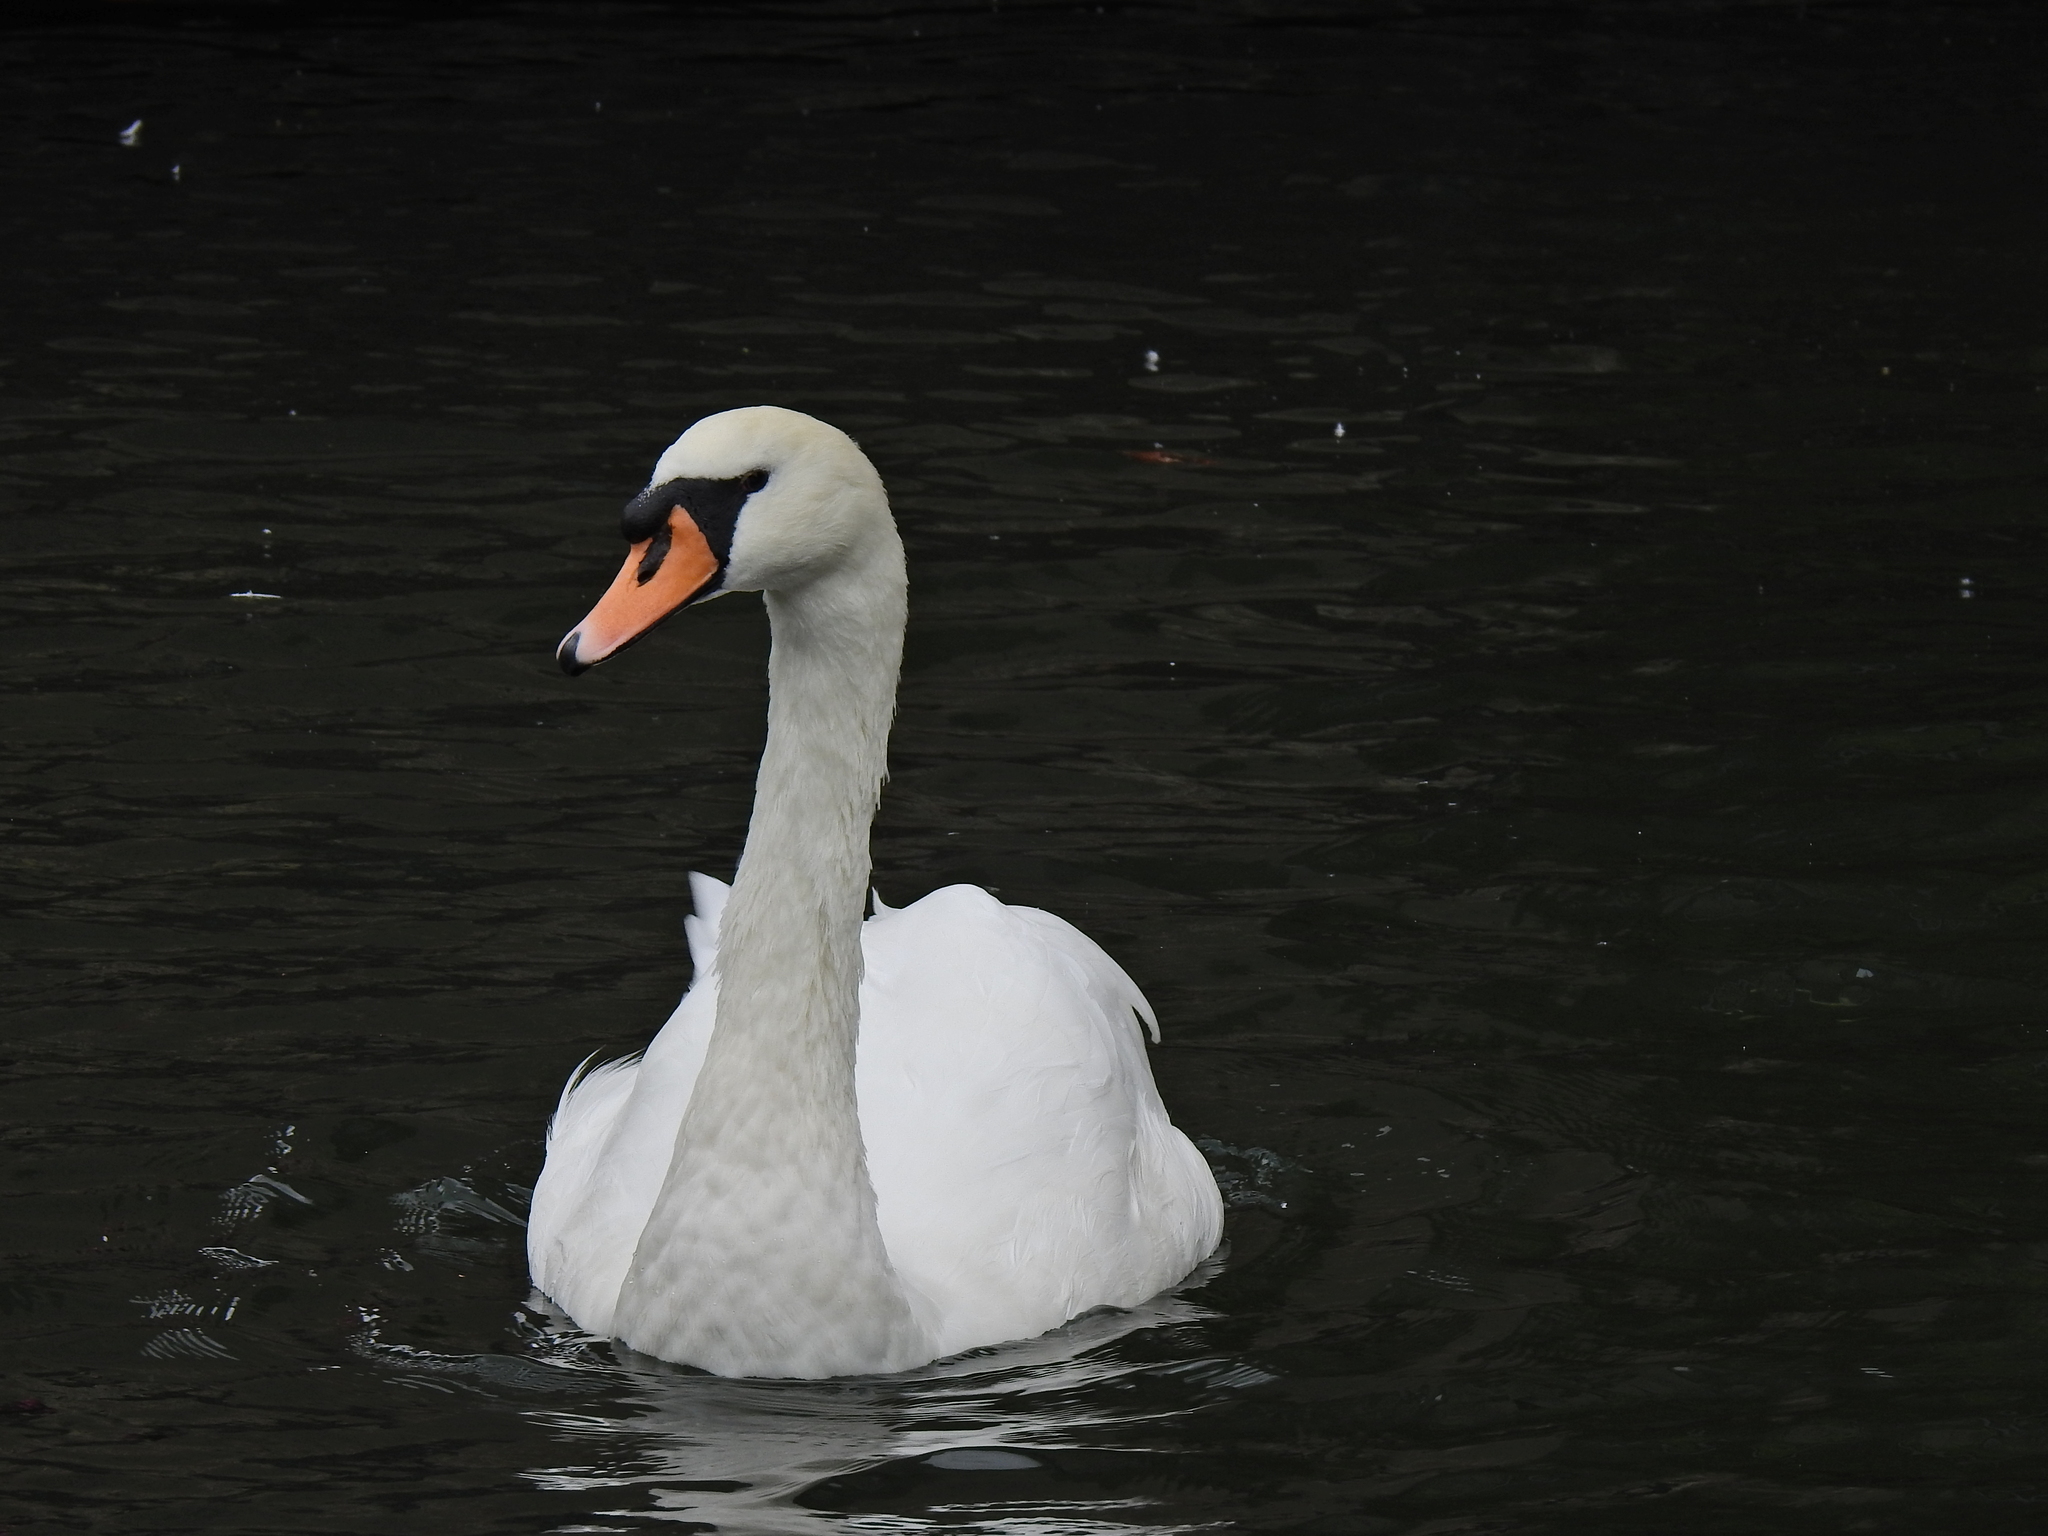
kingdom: Animalia
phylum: Chordata
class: Aves
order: Anseriformes
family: Anatidae
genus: Cygnus
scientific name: Cygnus olor
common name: Mute swan
